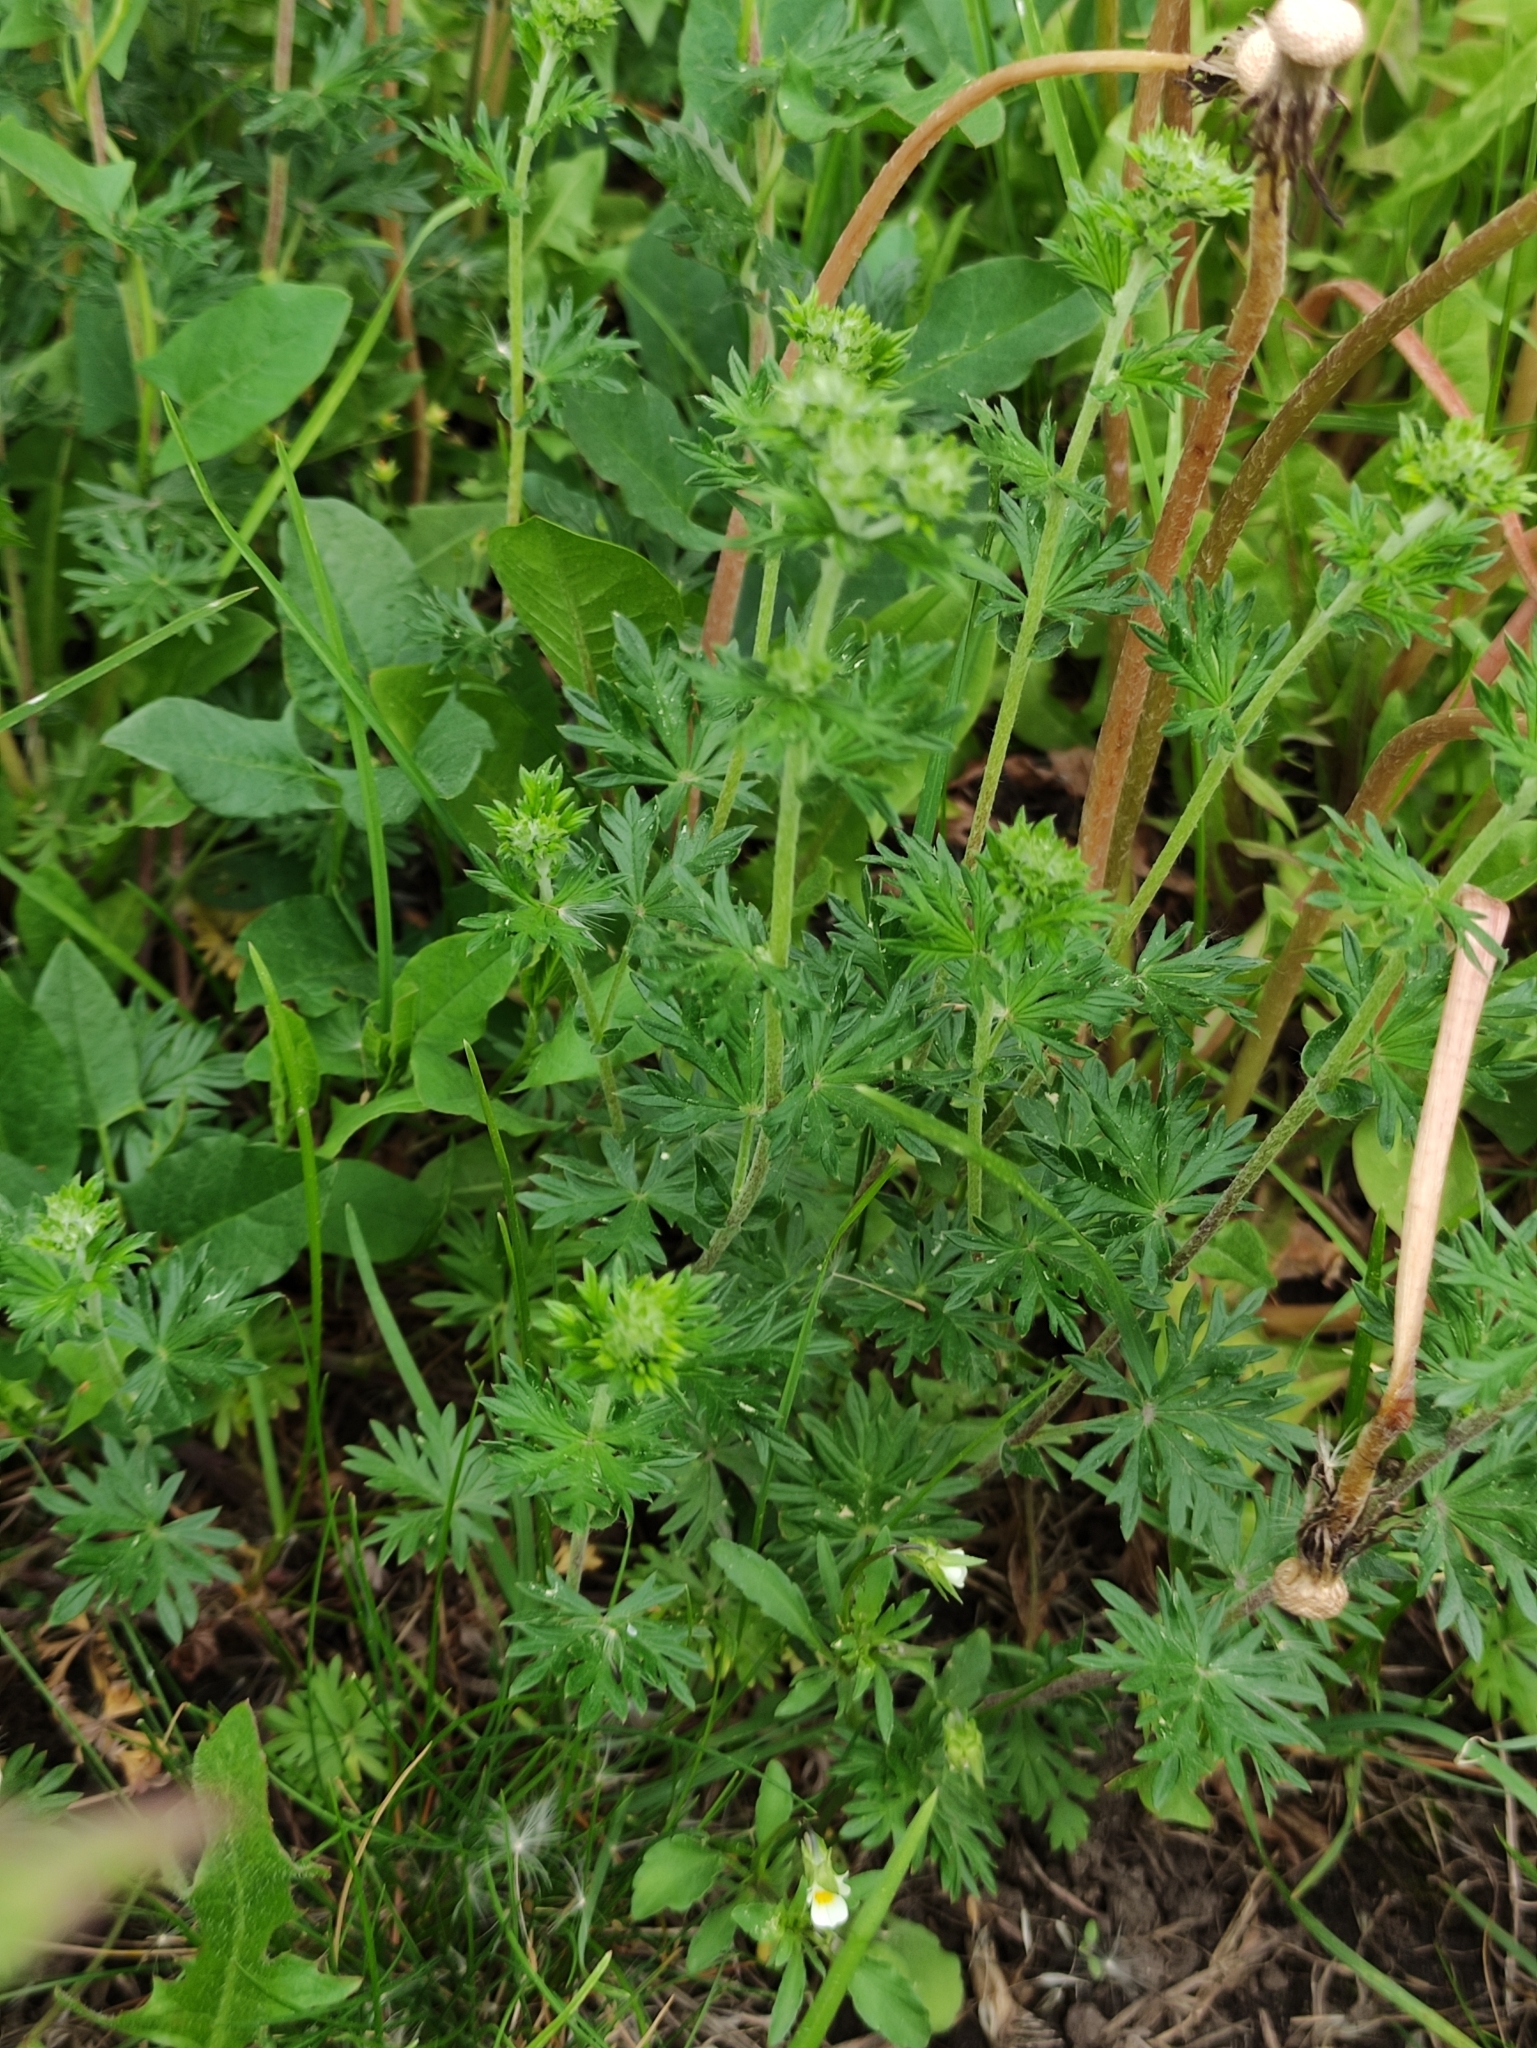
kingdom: Plantae
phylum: Tracheophyta
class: Magnoliopsida
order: Rosales
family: Rosaceae
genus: Potentilla
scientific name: Potentilla argentea
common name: Hoary cinquefoil
